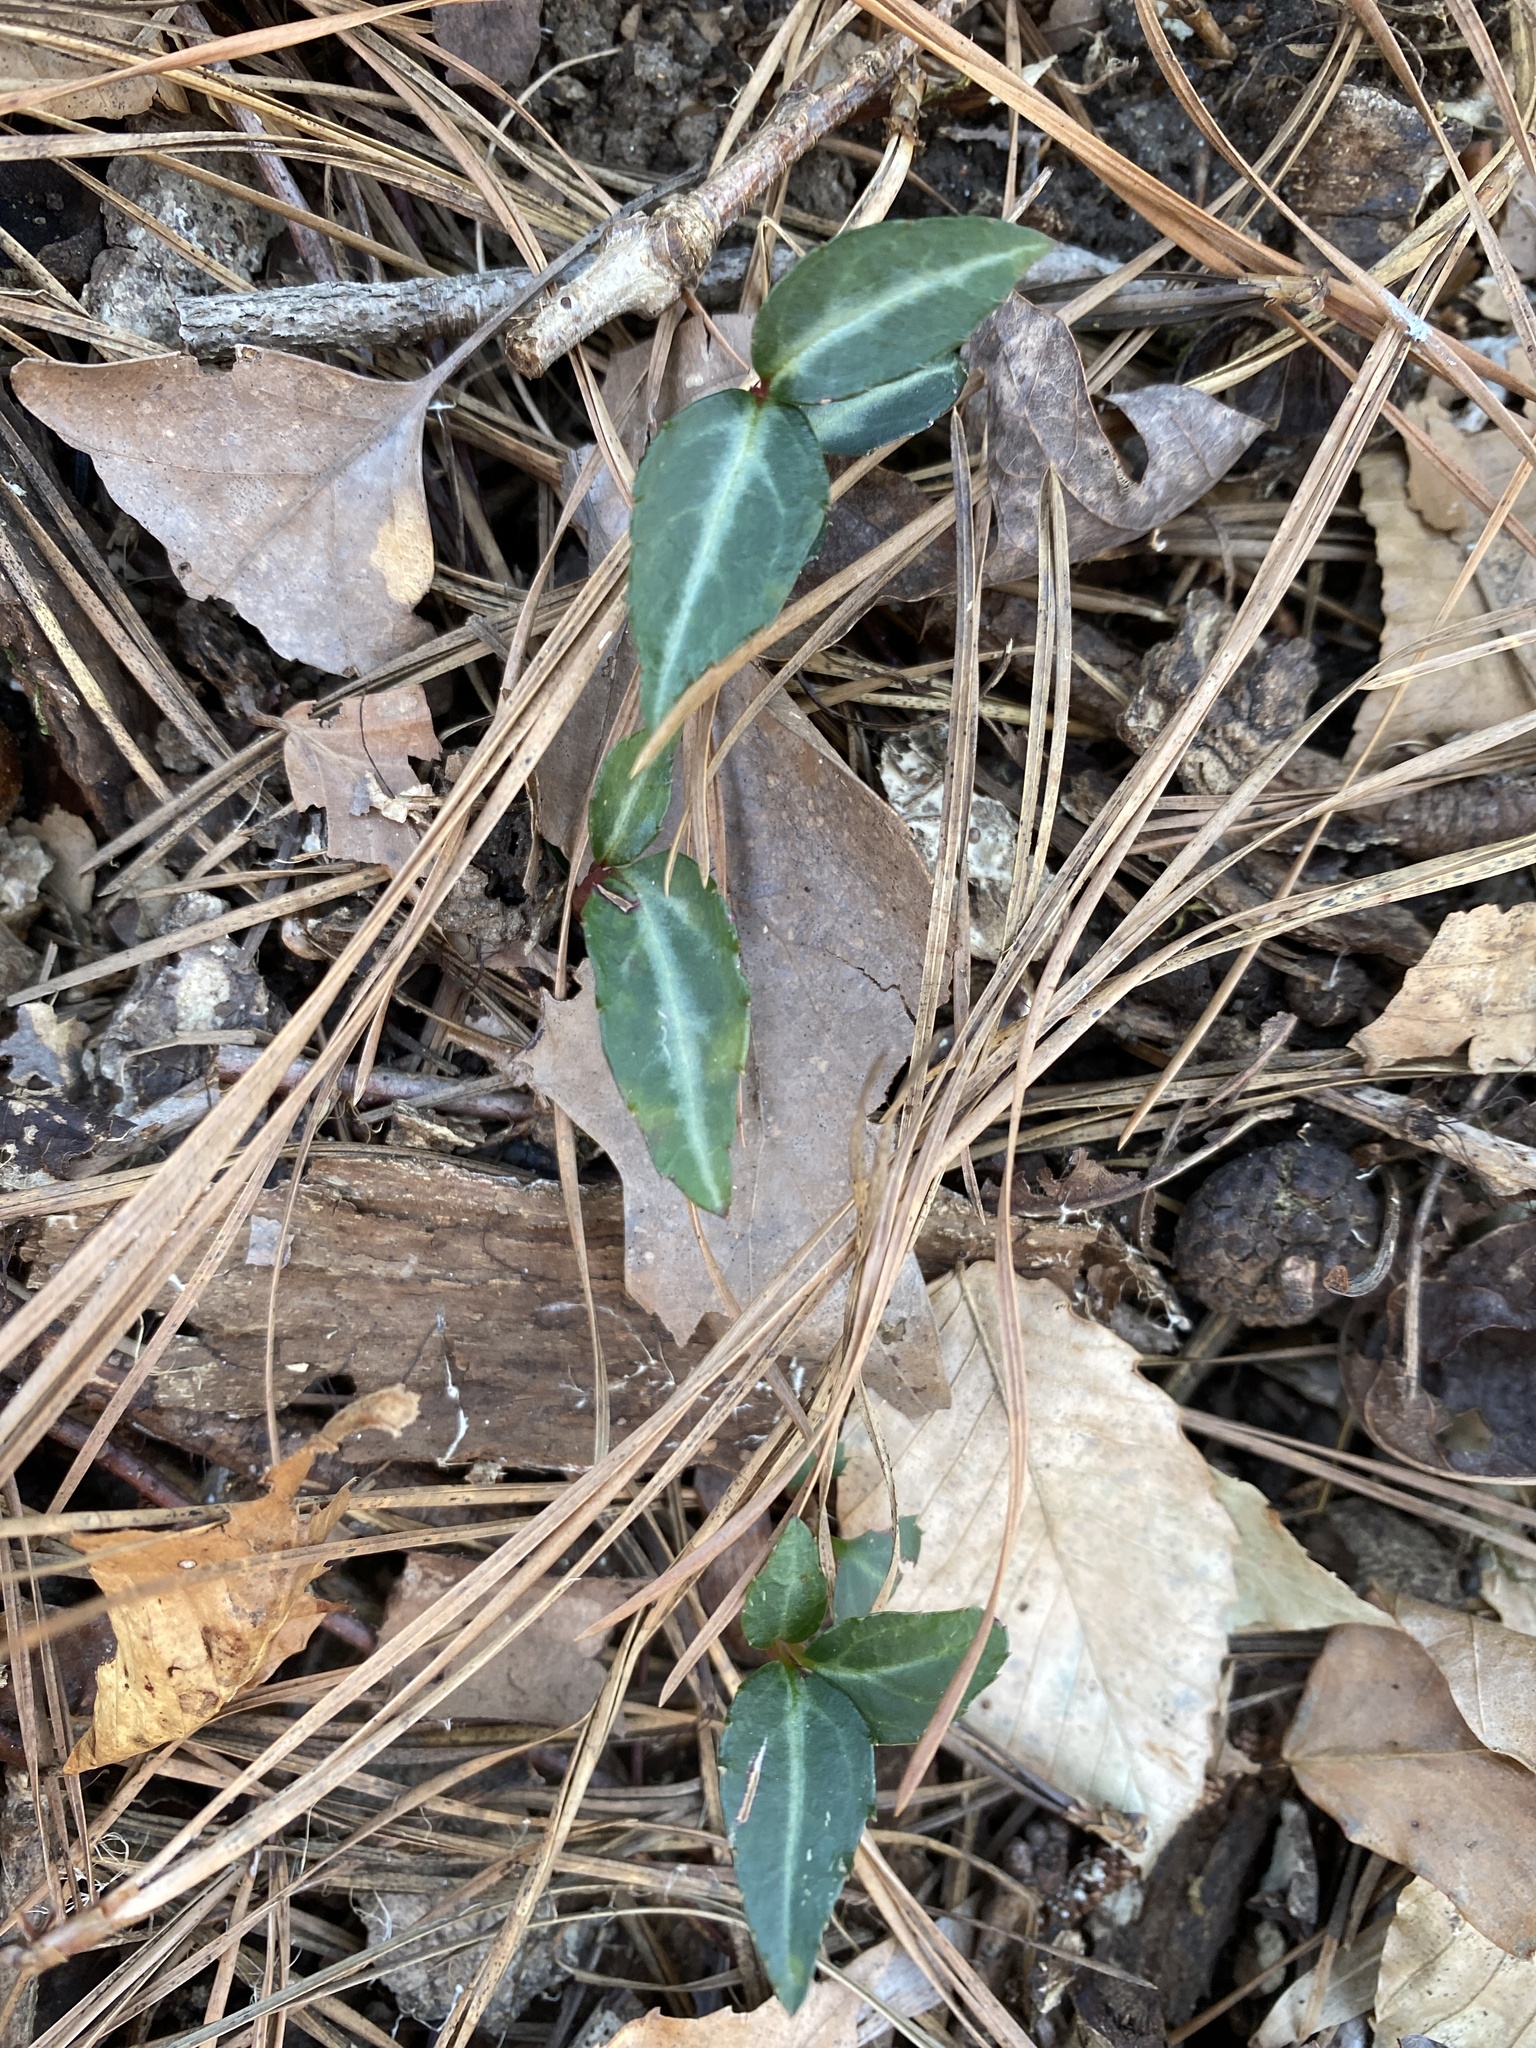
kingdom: Plantae
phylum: Tracheophyta
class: Magnoliopsida
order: Ericales
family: Ericaceae
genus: Chimaphila
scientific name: Chimaphila maculata
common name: Spotted pipsissewa
